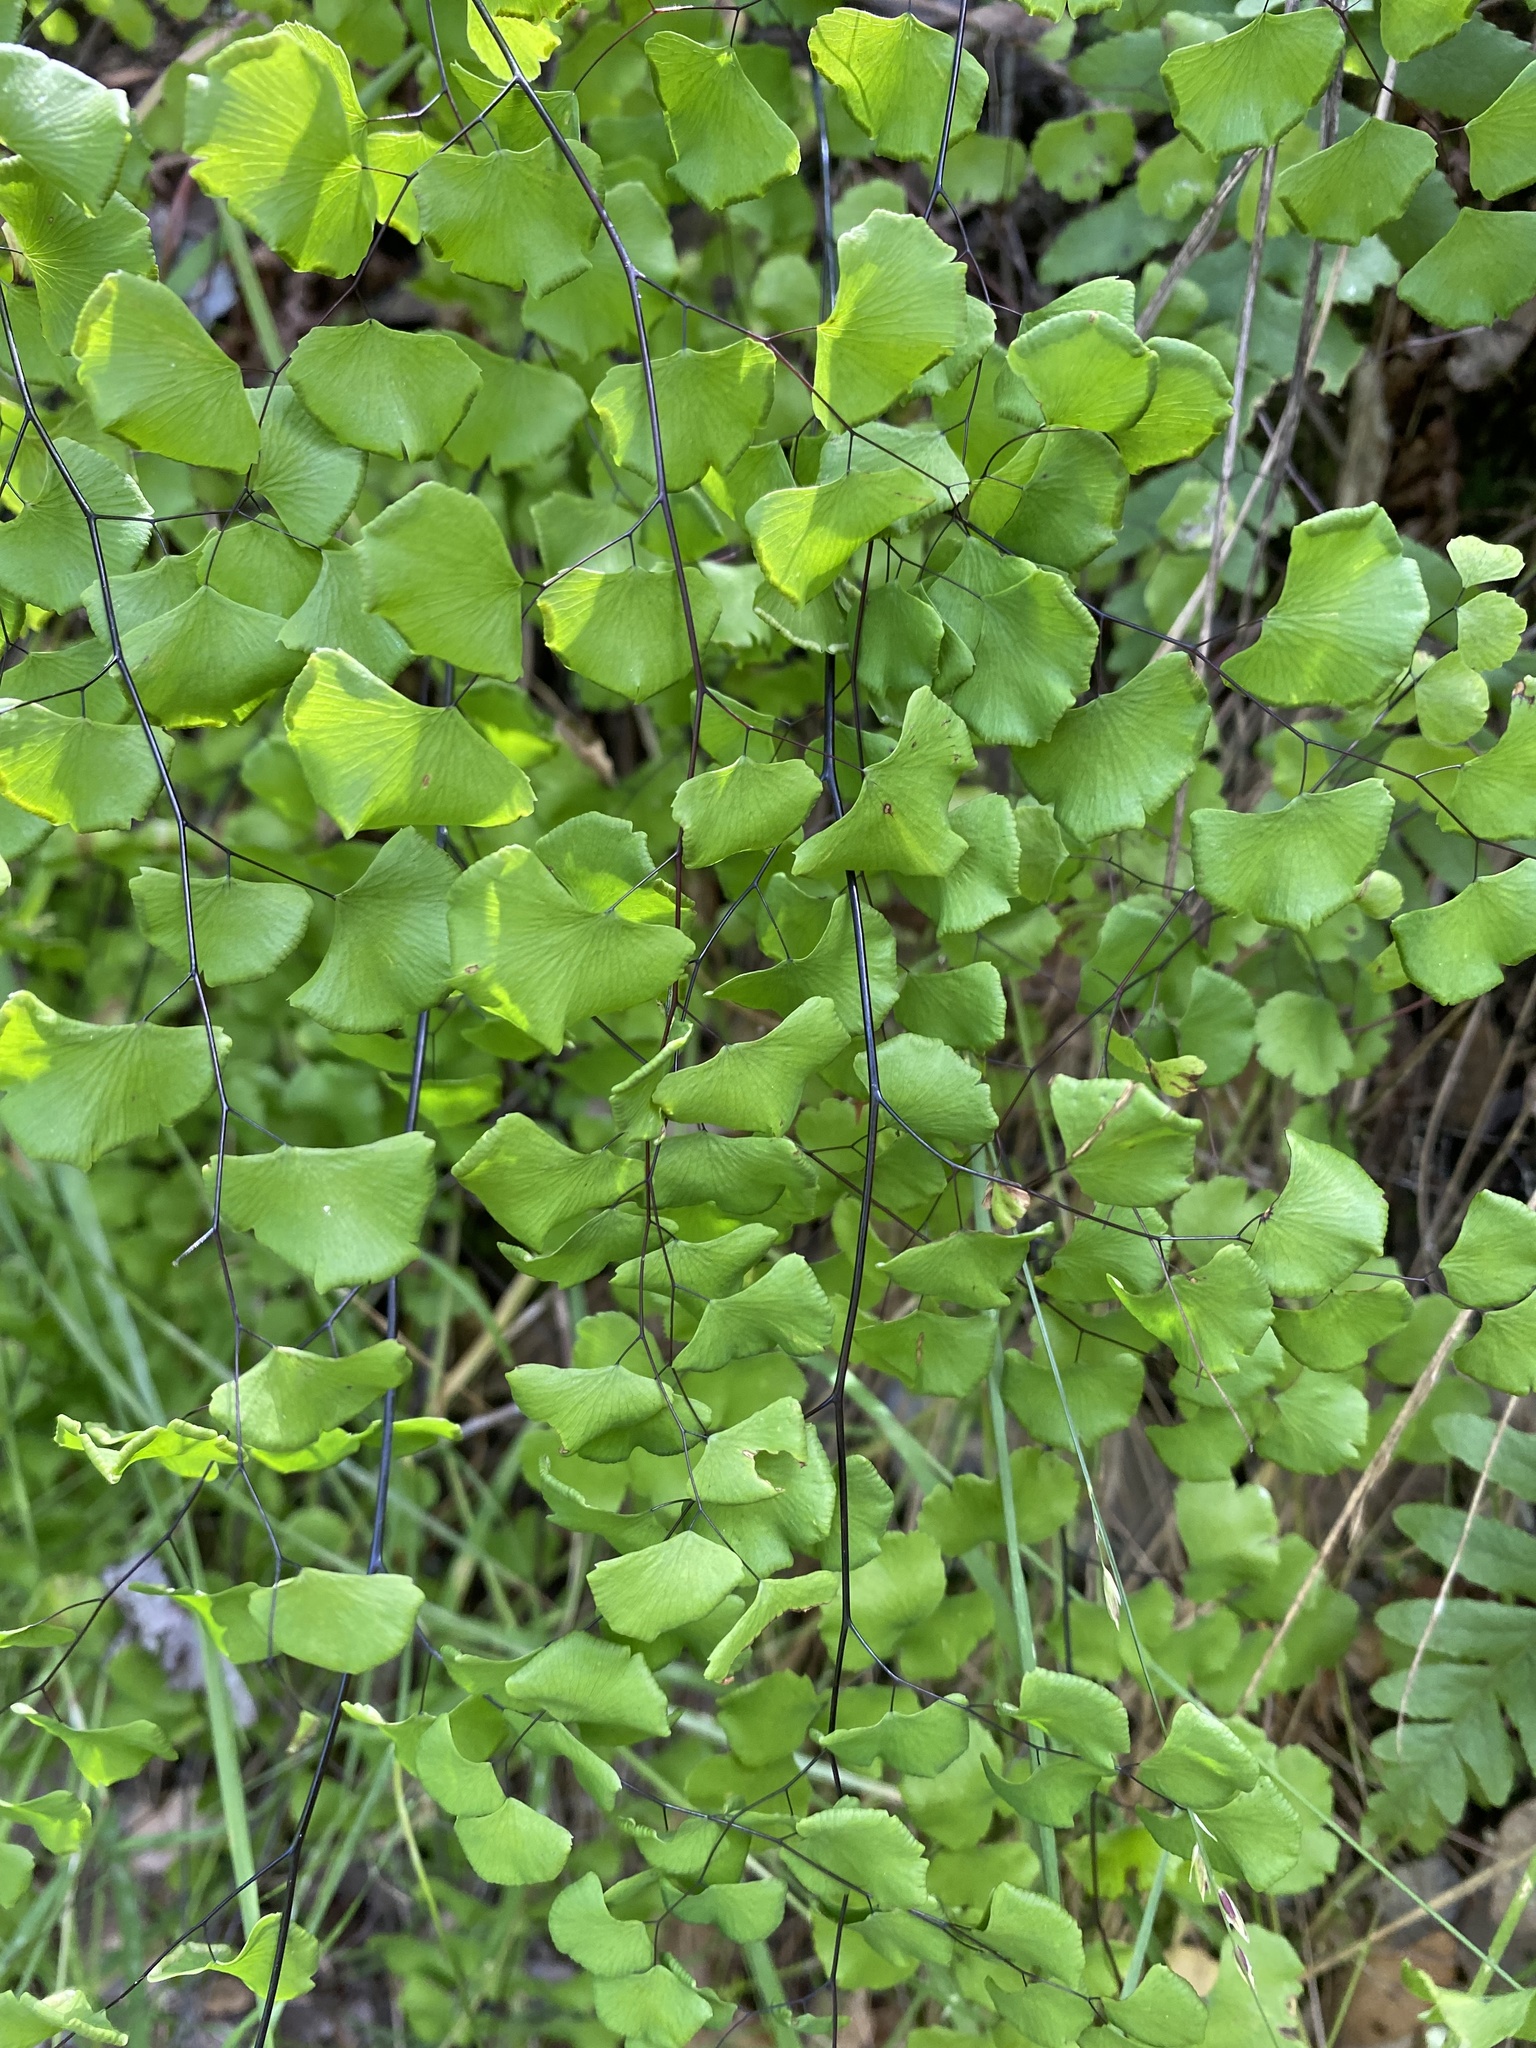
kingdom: Plantae
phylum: Tracheophyta
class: Polypodiopsida
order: Polypodiales
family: Pteridaceae
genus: Adiantum
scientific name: Adiantum jordanii
